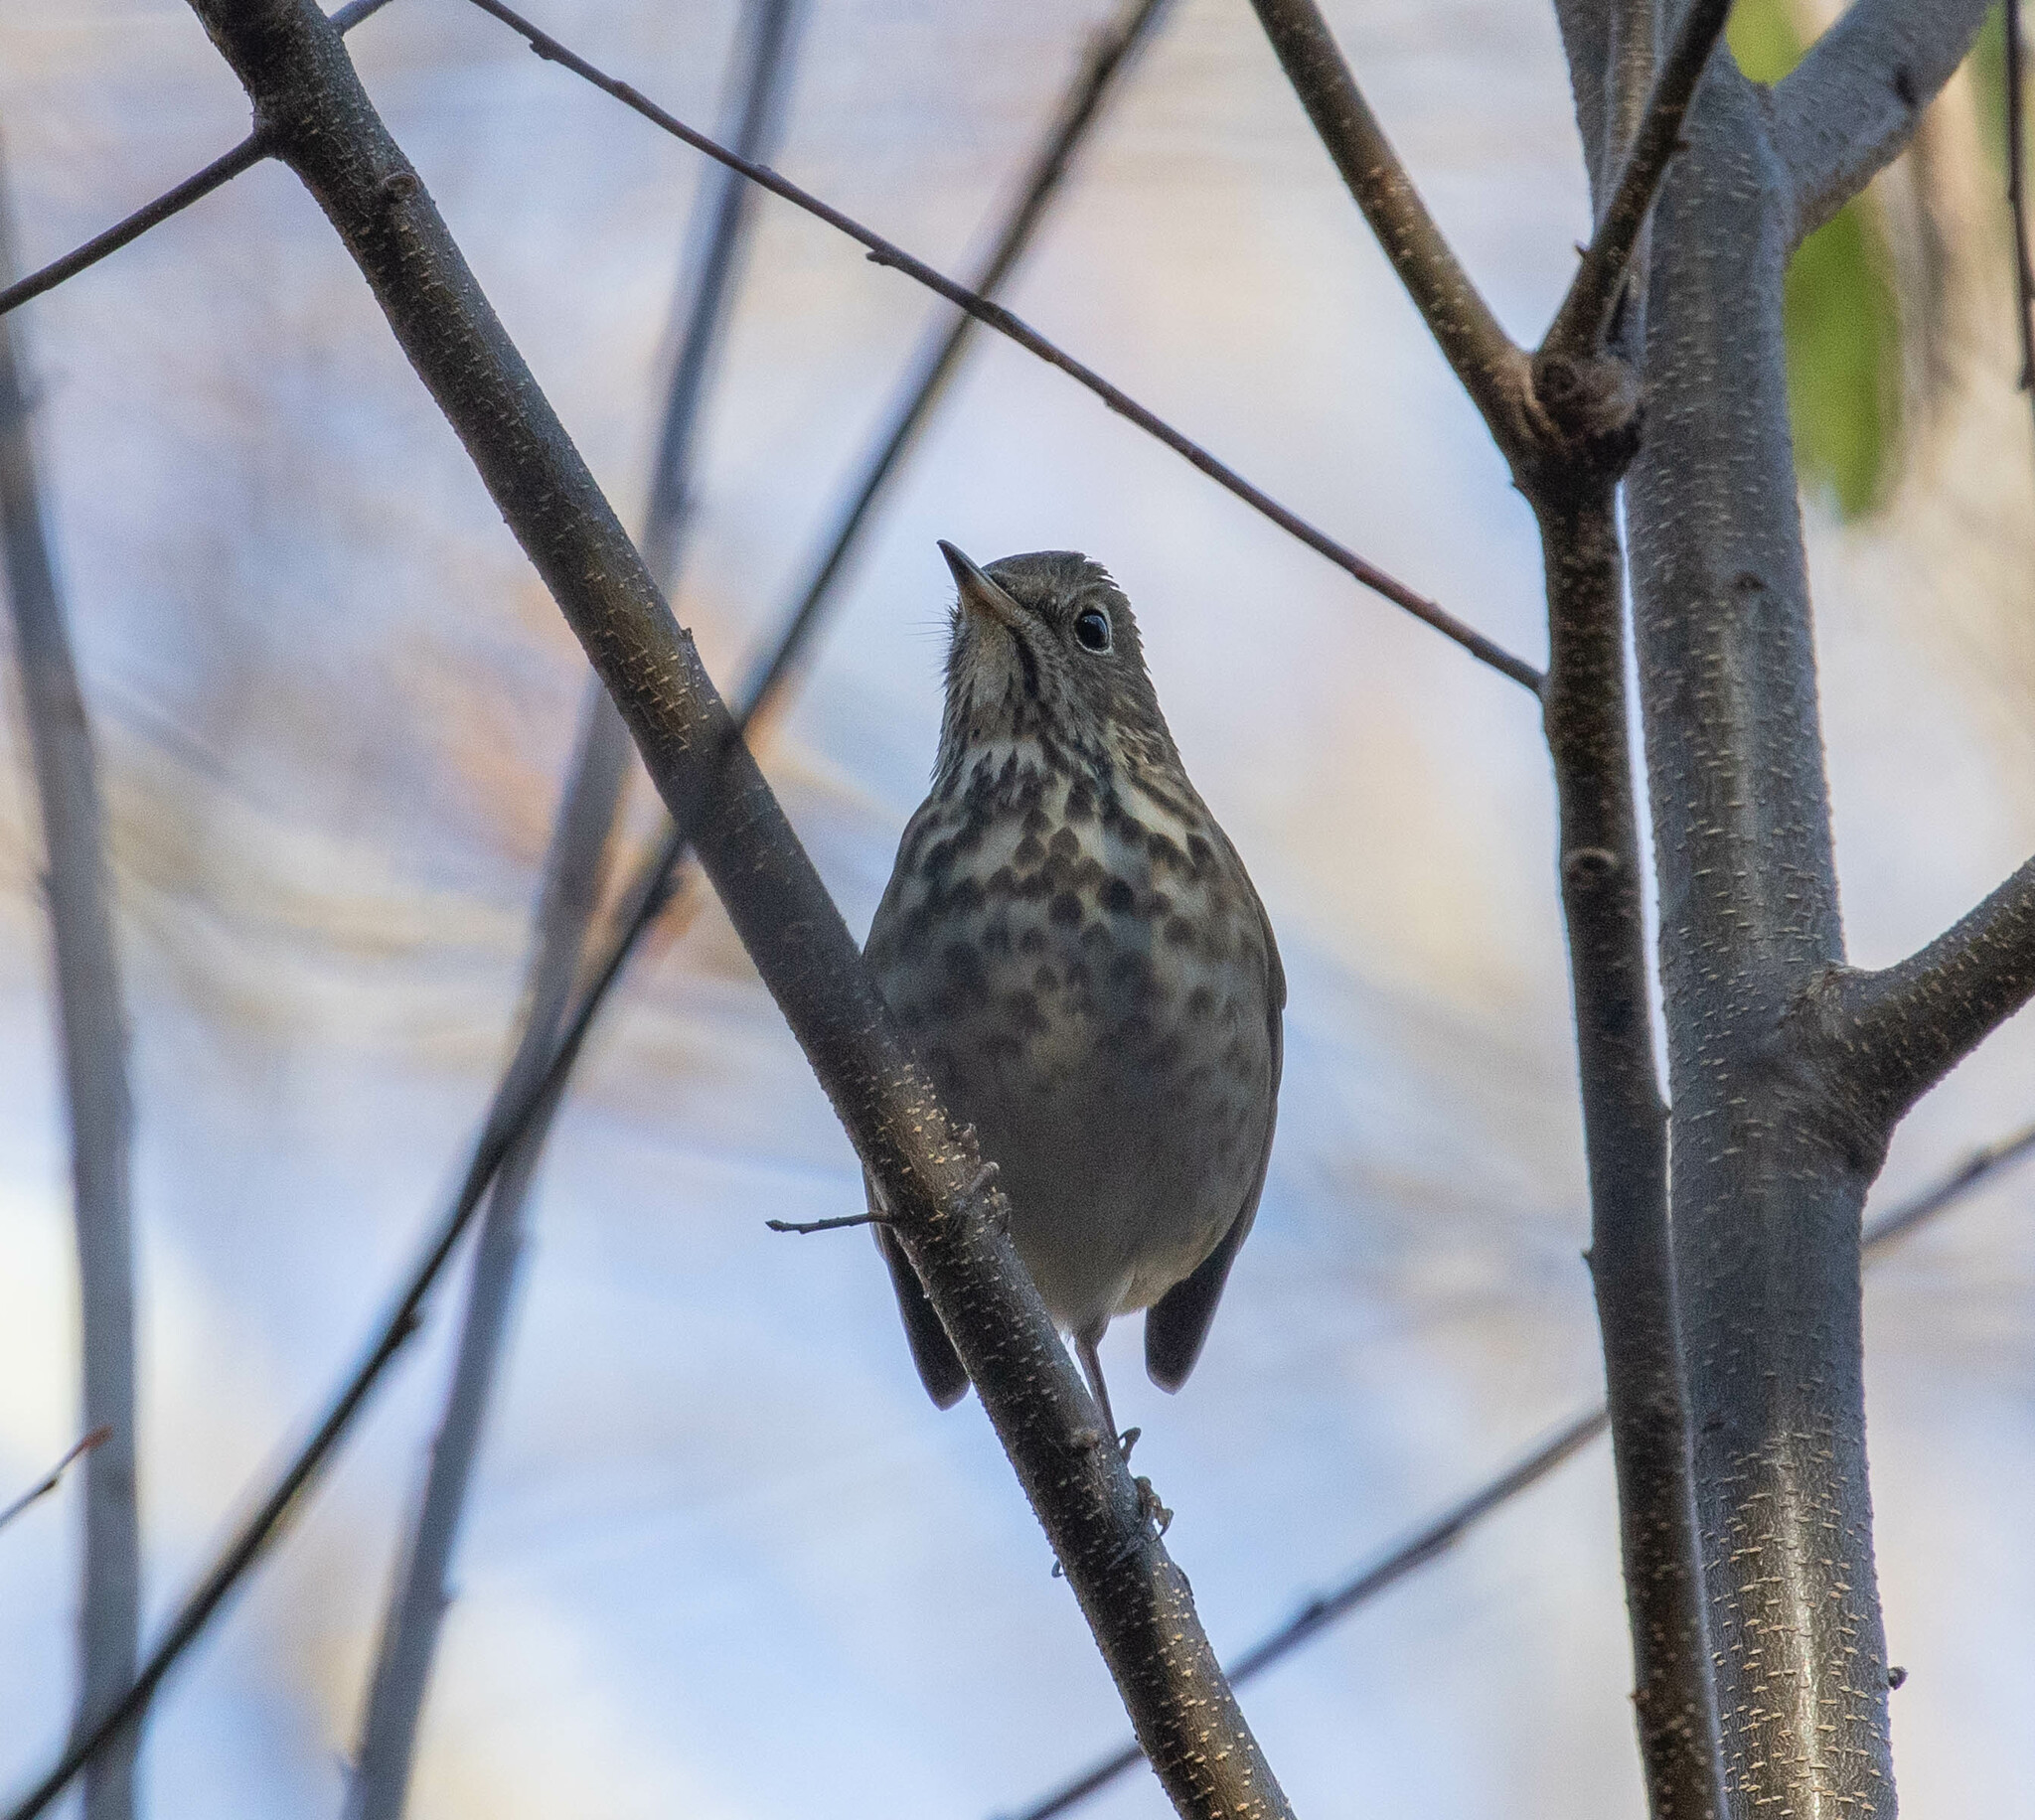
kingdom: Animalia
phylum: Chordata
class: Aves
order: Passeriformes
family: Turdidae
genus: Catharus
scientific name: Catharus guttatus
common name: Hermit thrush
